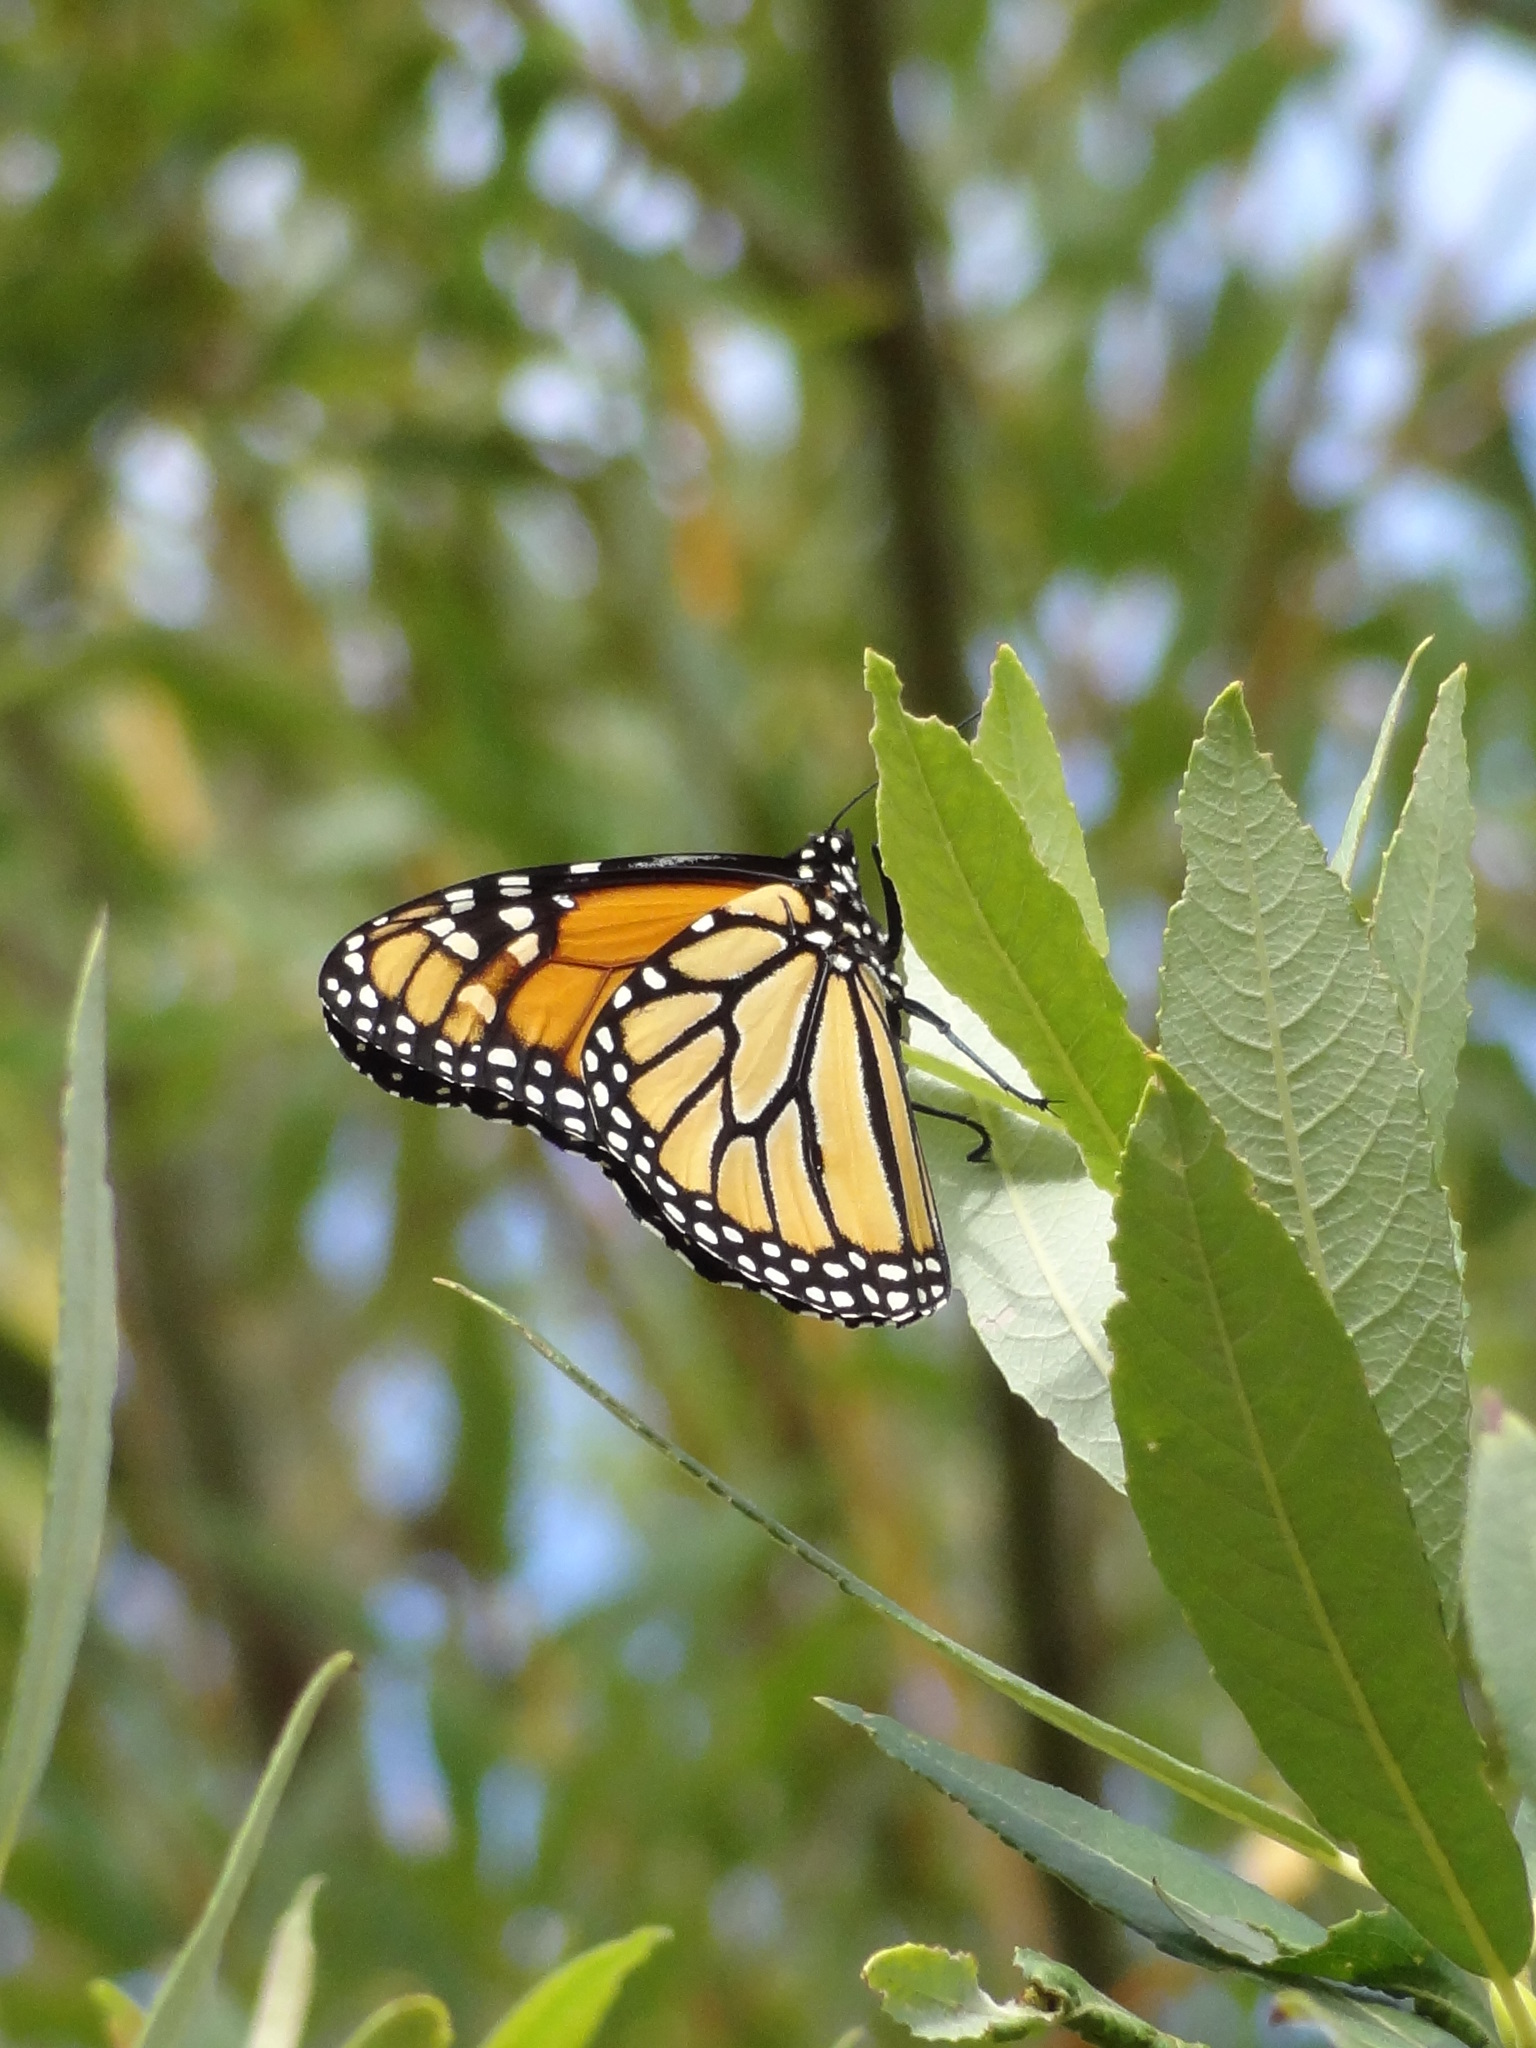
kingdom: Animalia
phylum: Arthropoda
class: Insecta
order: Lepidoptera
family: Nymphalidae
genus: Danaus
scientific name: Danaus plexippus
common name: Monarch
